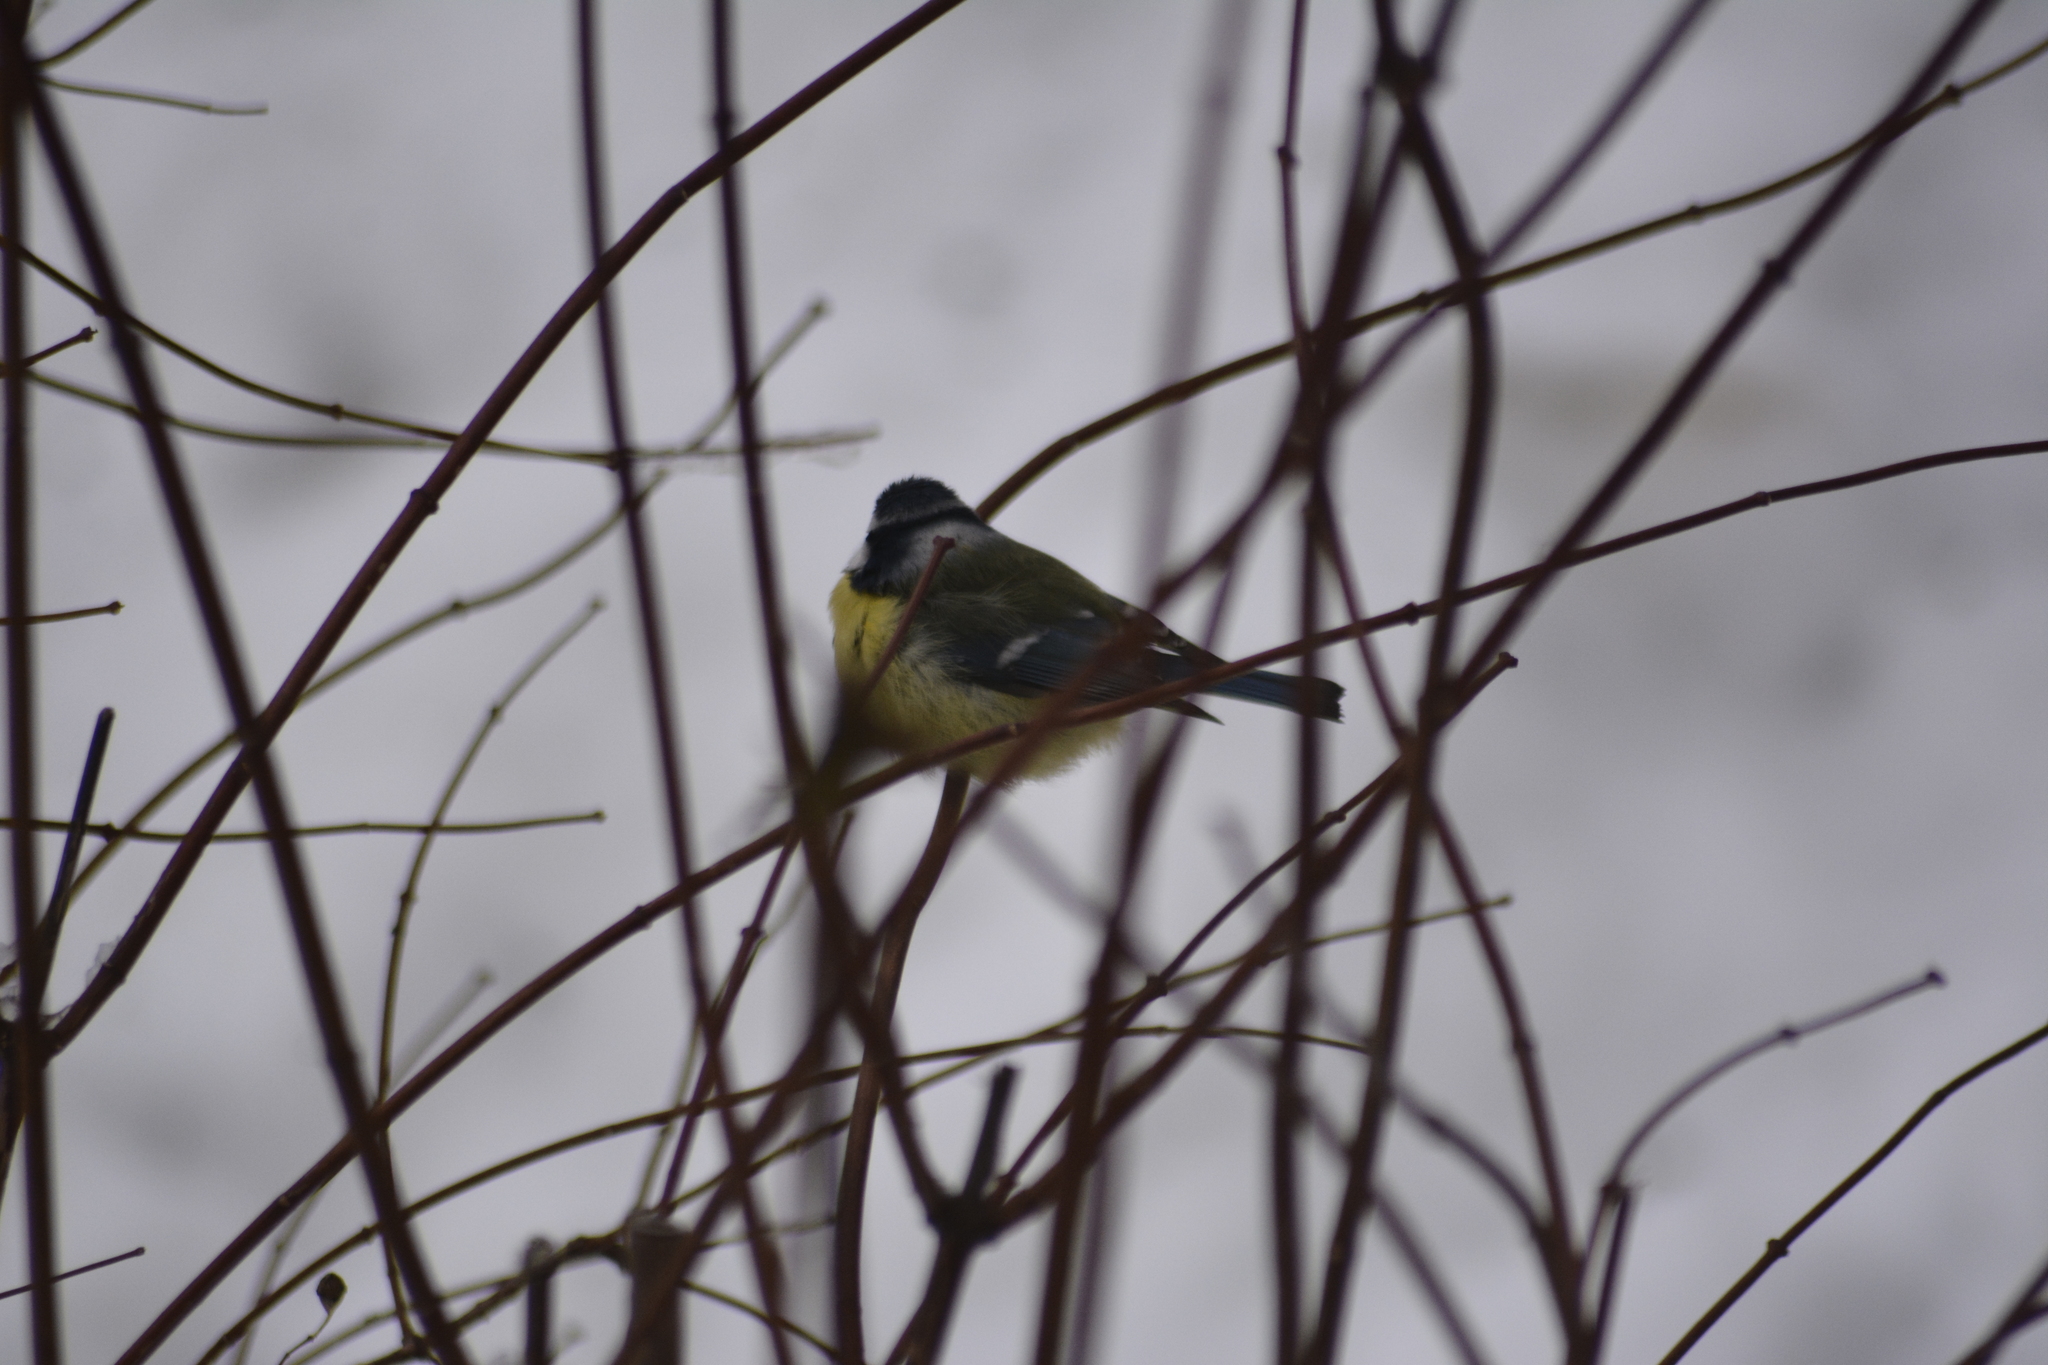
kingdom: Animalia
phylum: Chordata
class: Aves
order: Passeriformes
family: Paridae
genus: Cyanistes
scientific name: Cyanistes caeruleus
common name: Eurasian blue tit
